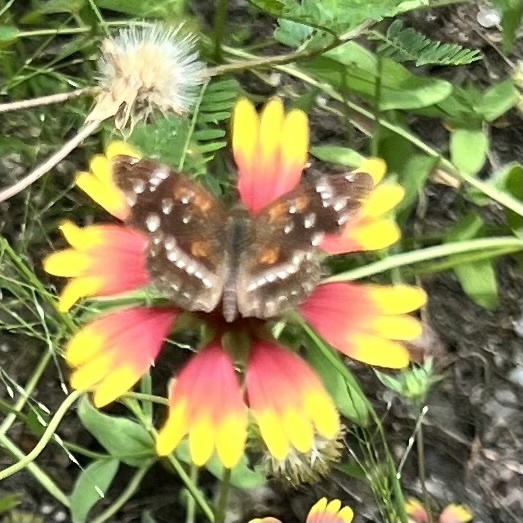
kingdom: Animalia
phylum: Arthropoda
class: Insecta
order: Lepidoptera
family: Nymphalidae
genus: Anthanassa
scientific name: Anthanassa texana
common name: Texan crescent
